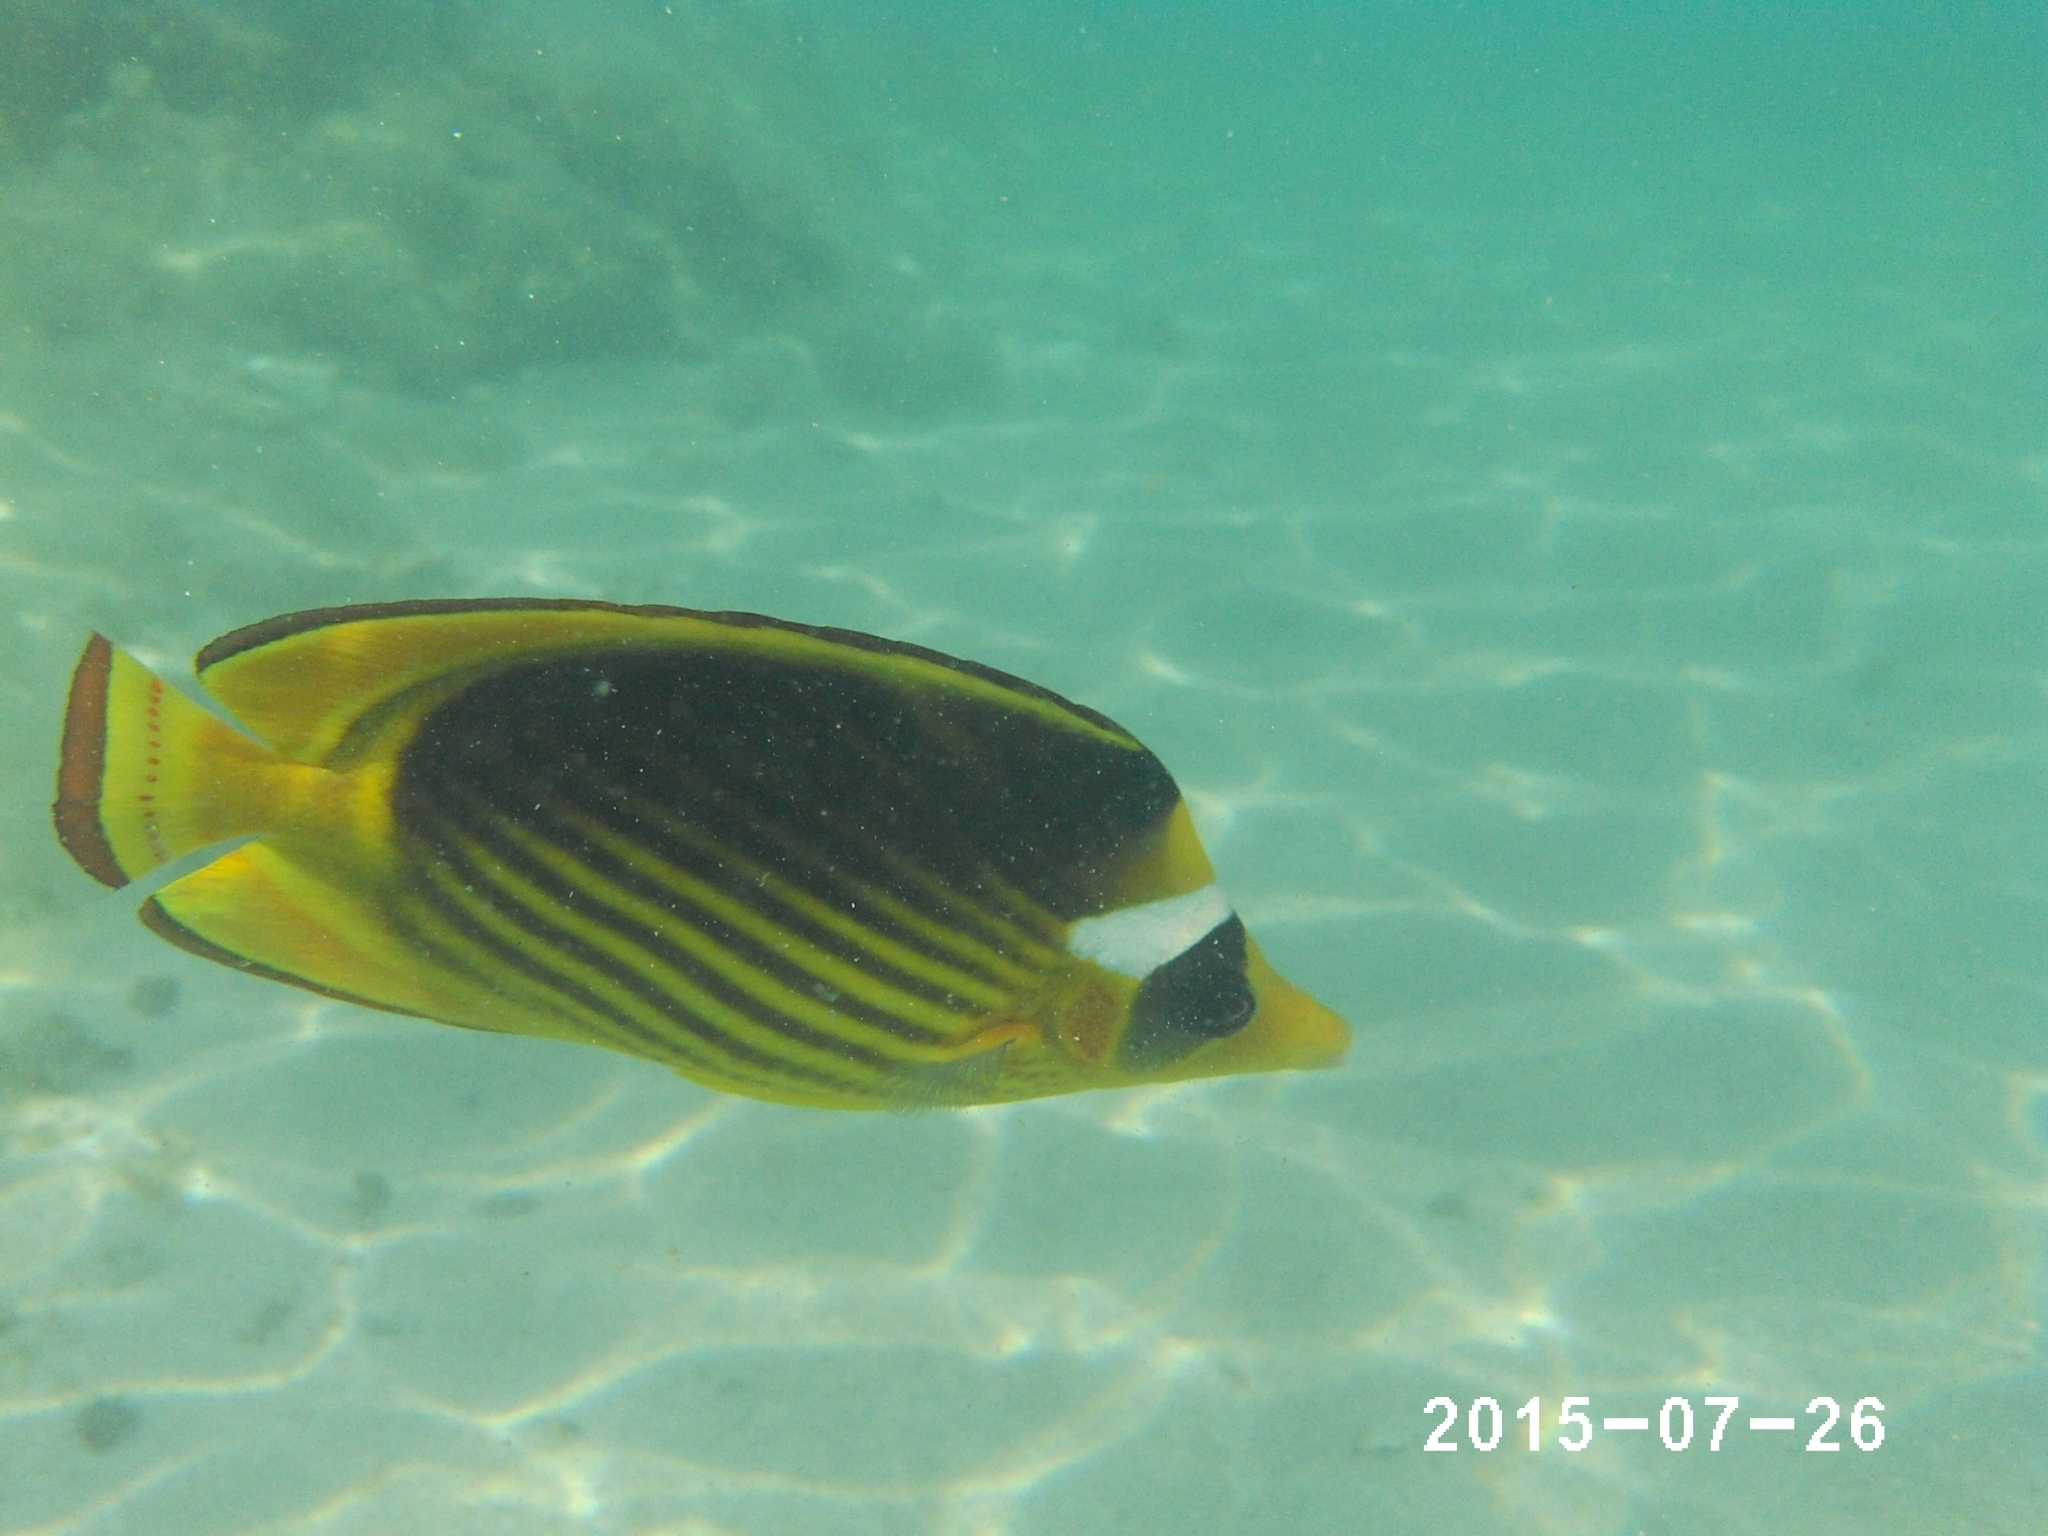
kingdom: Animalia
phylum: Chordata
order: Perciformes
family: Chaetodontidae
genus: Chaetodon
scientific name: Chaetodon fasciatus
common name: Diagonal butterflyfish
